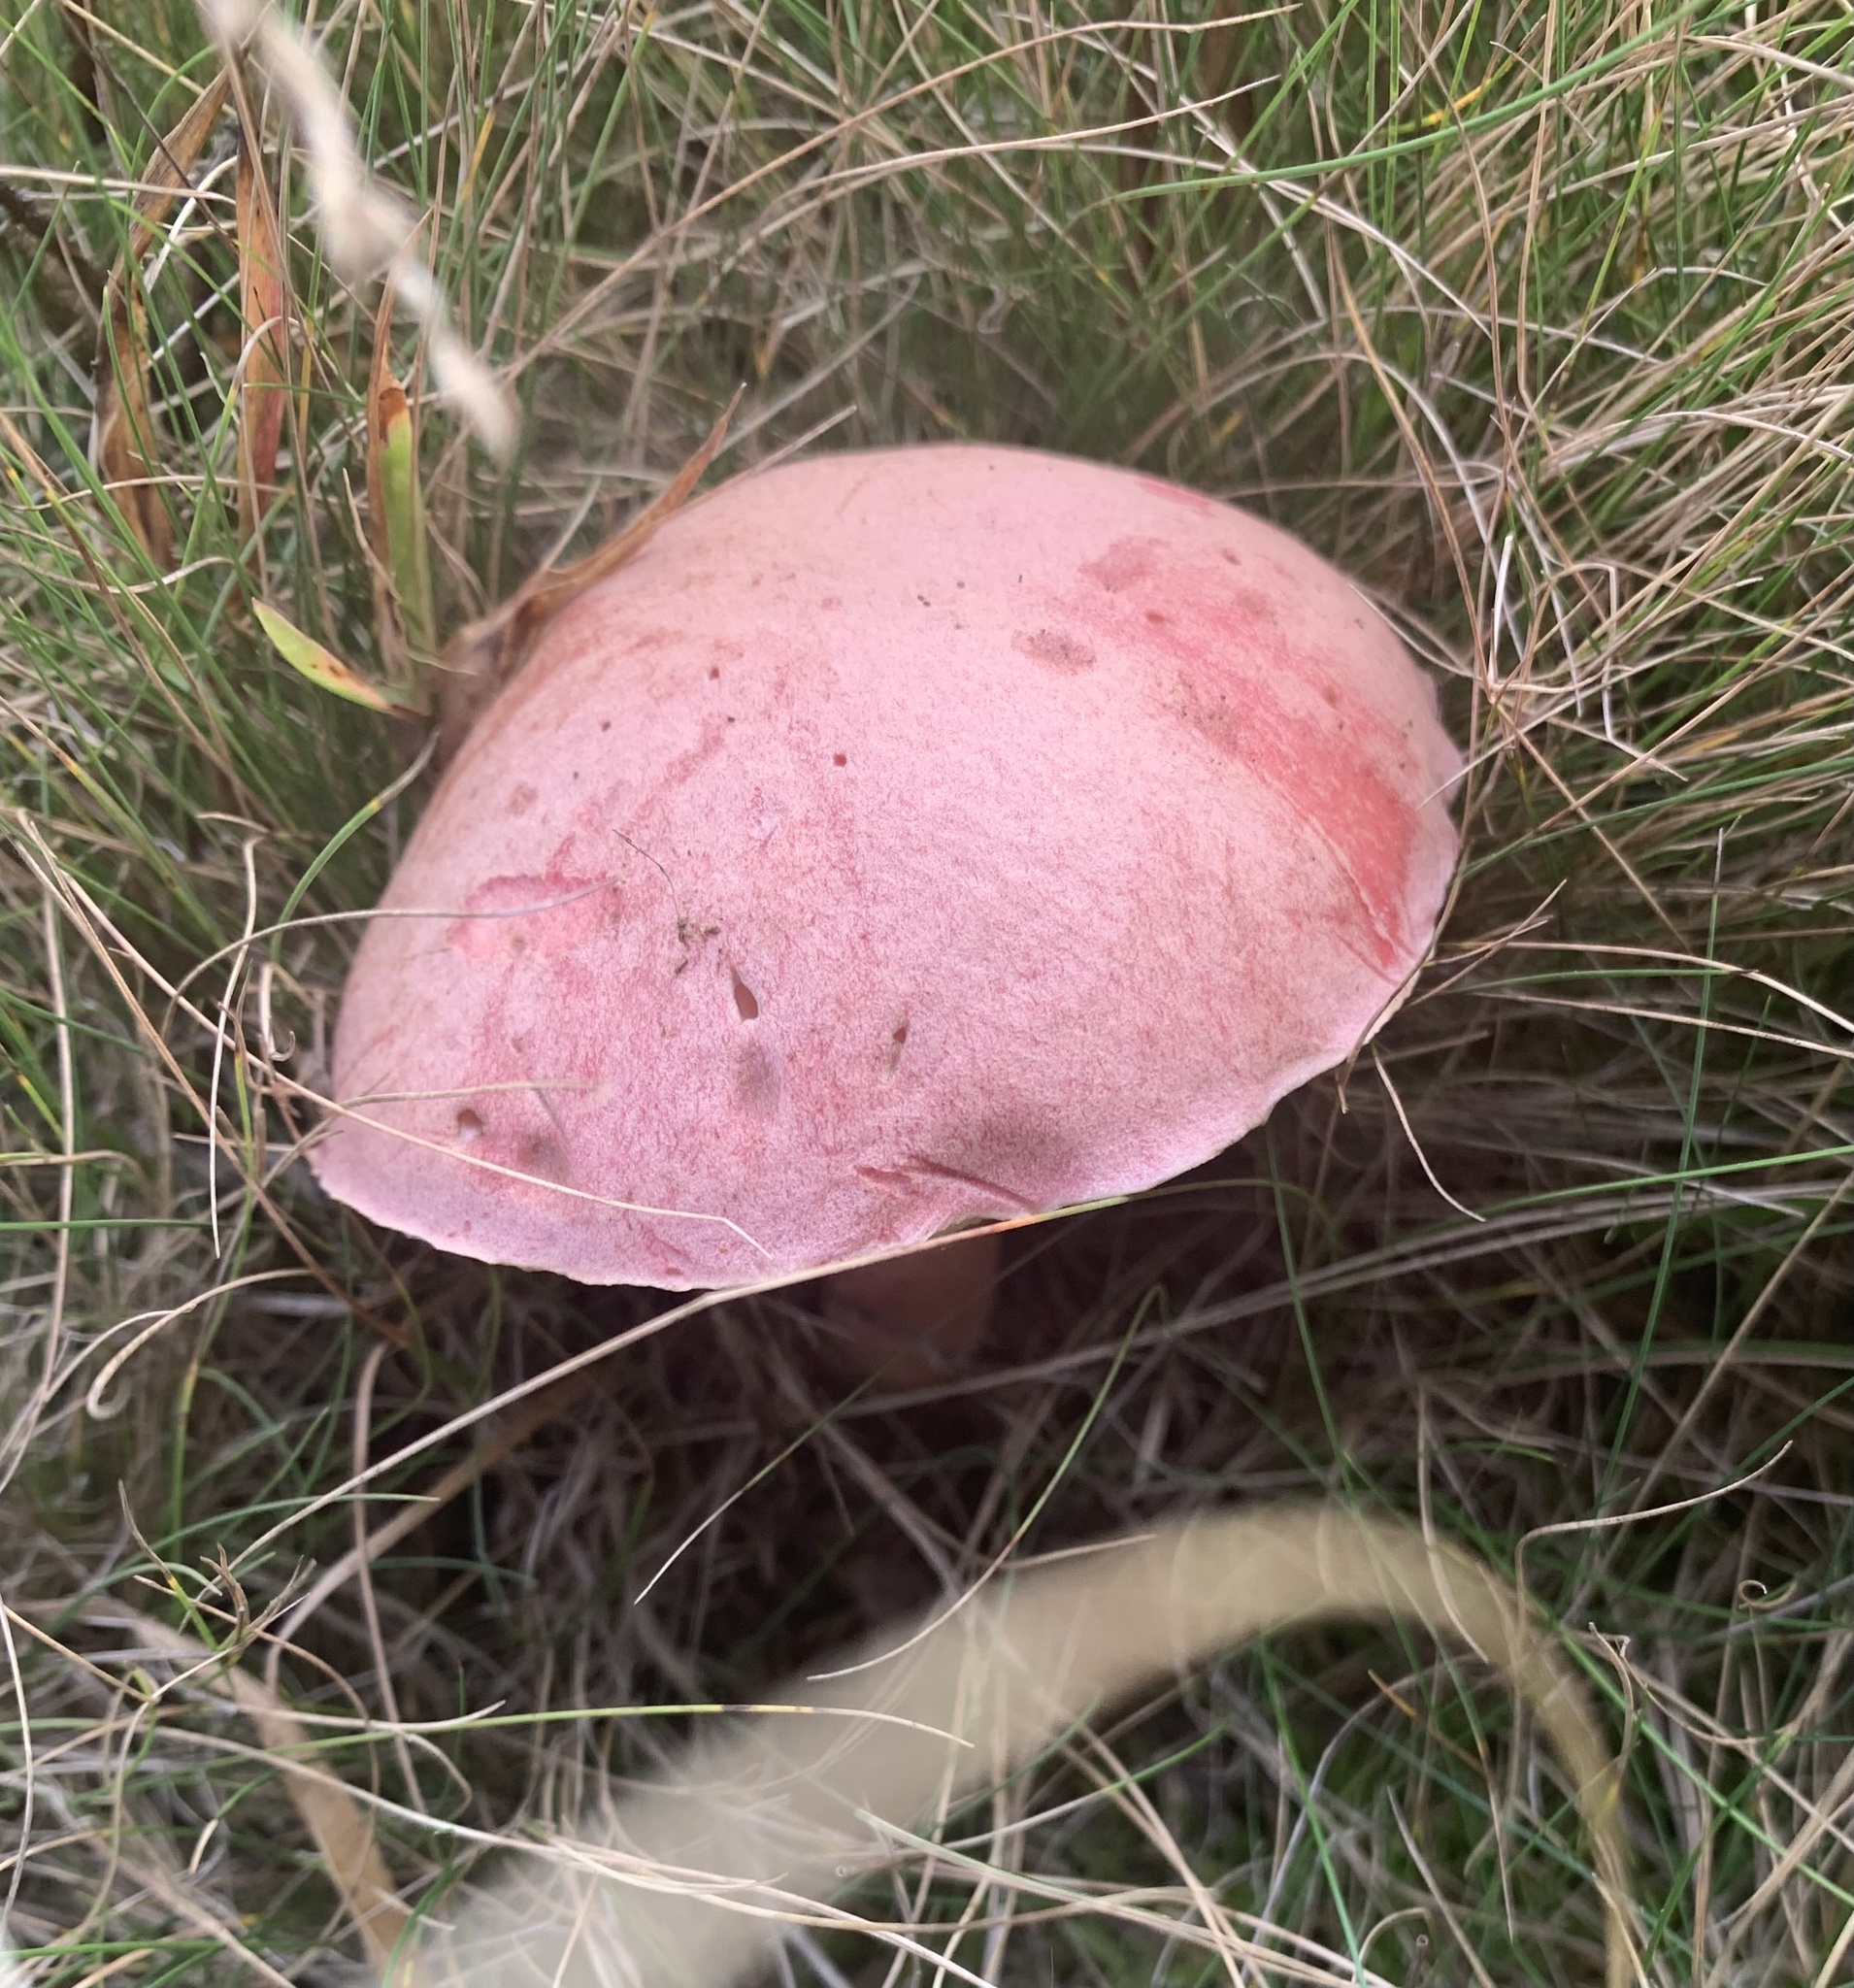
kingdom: Fungi
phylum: Basidiomycota
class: Agaricomycetes
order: Boletales
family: Boletaceae
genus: Harrya
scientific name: Harrya chromipes
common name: Chrome-footed bolete
